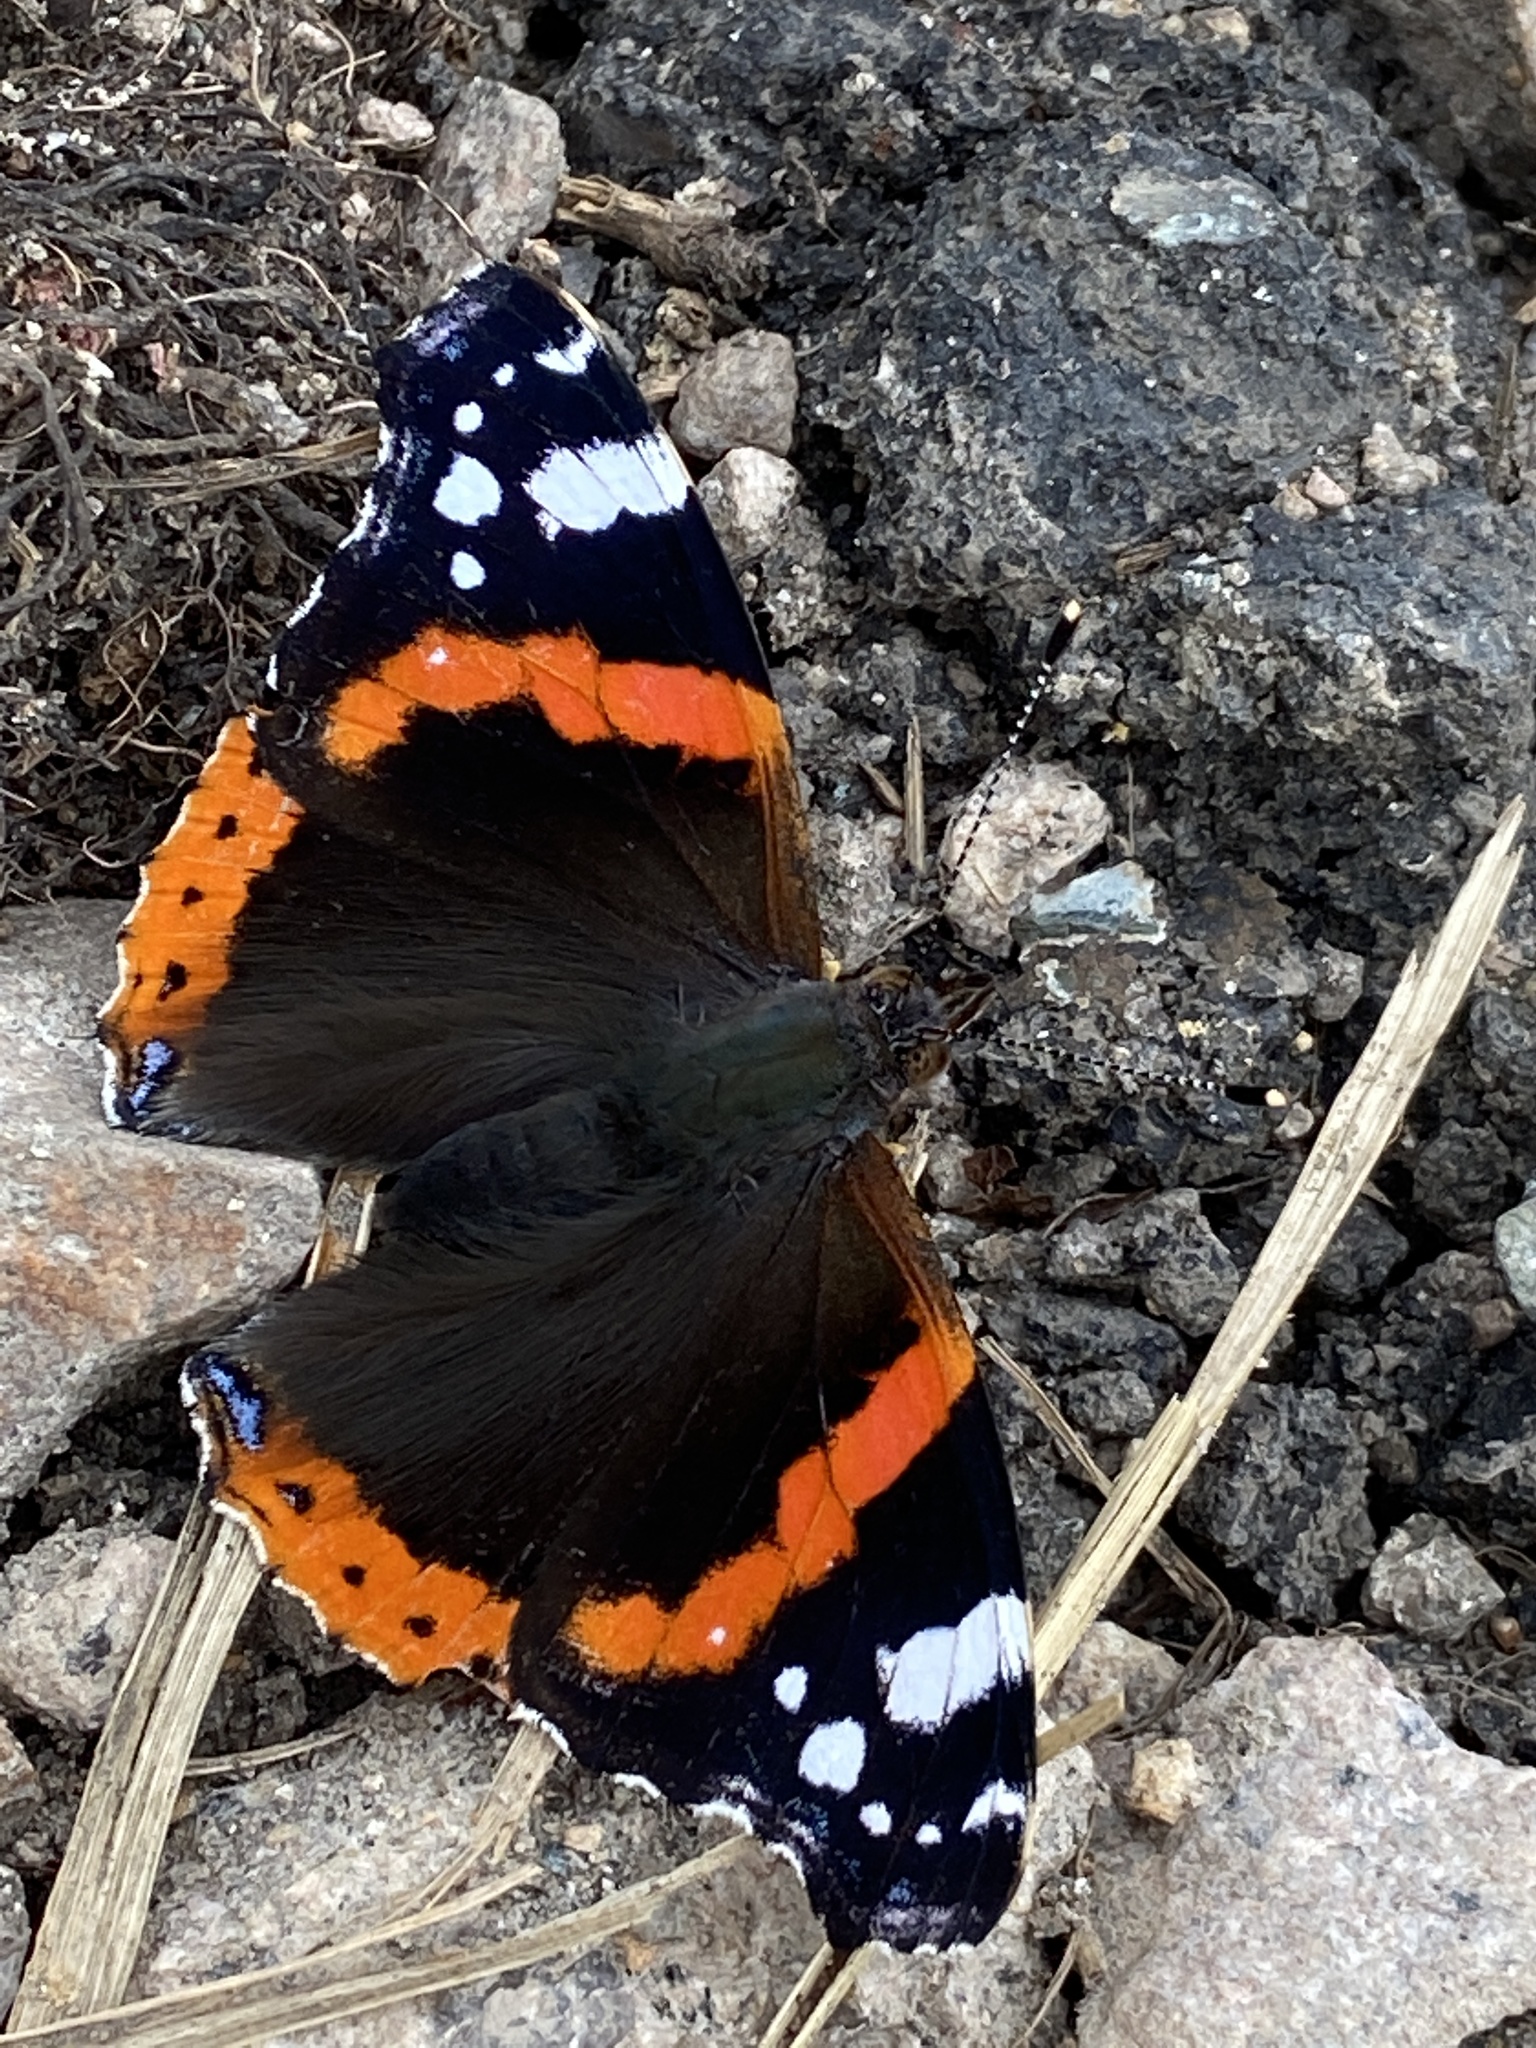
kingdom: Animalia
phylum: Arthropoda
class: Insecta
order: Lepidoptera
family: Nymphalidae
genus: Vanessa
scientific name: Vanessa atalanta
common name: Red admiral
